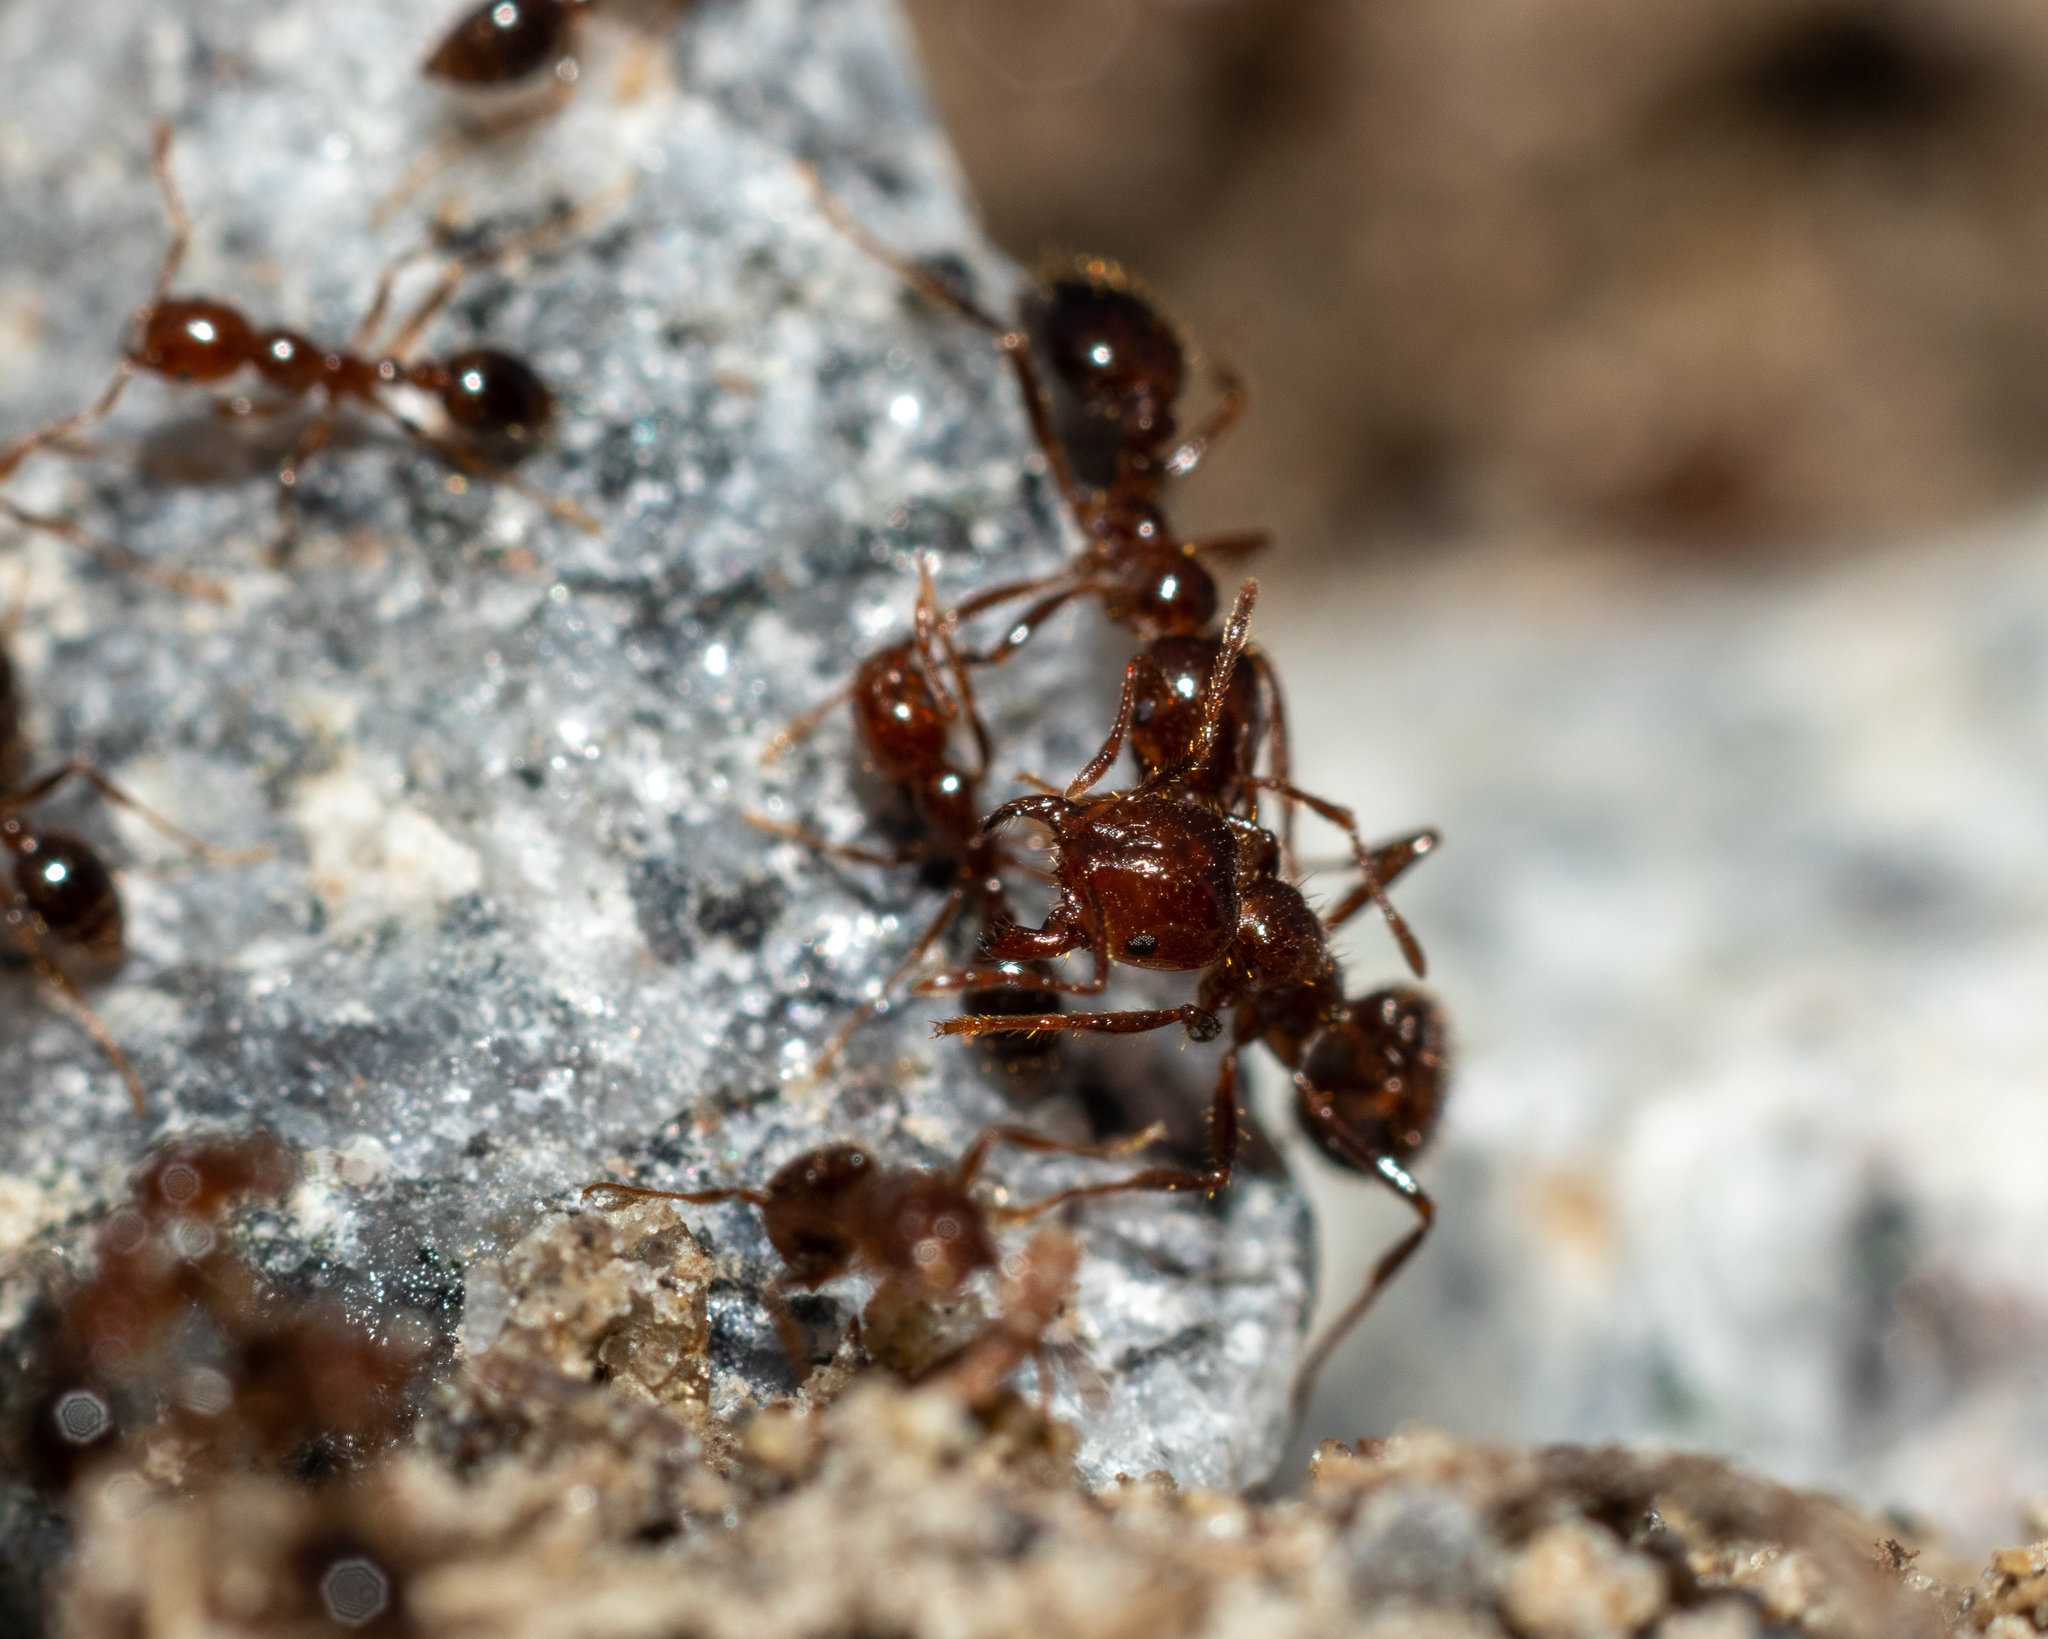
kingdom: Animalia
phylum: Arthropoda
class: Insecta
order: Hymenoptera
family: Formicidae
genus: Solenopsis
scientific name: Solenopsis invicta
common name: Red imported fire ant
